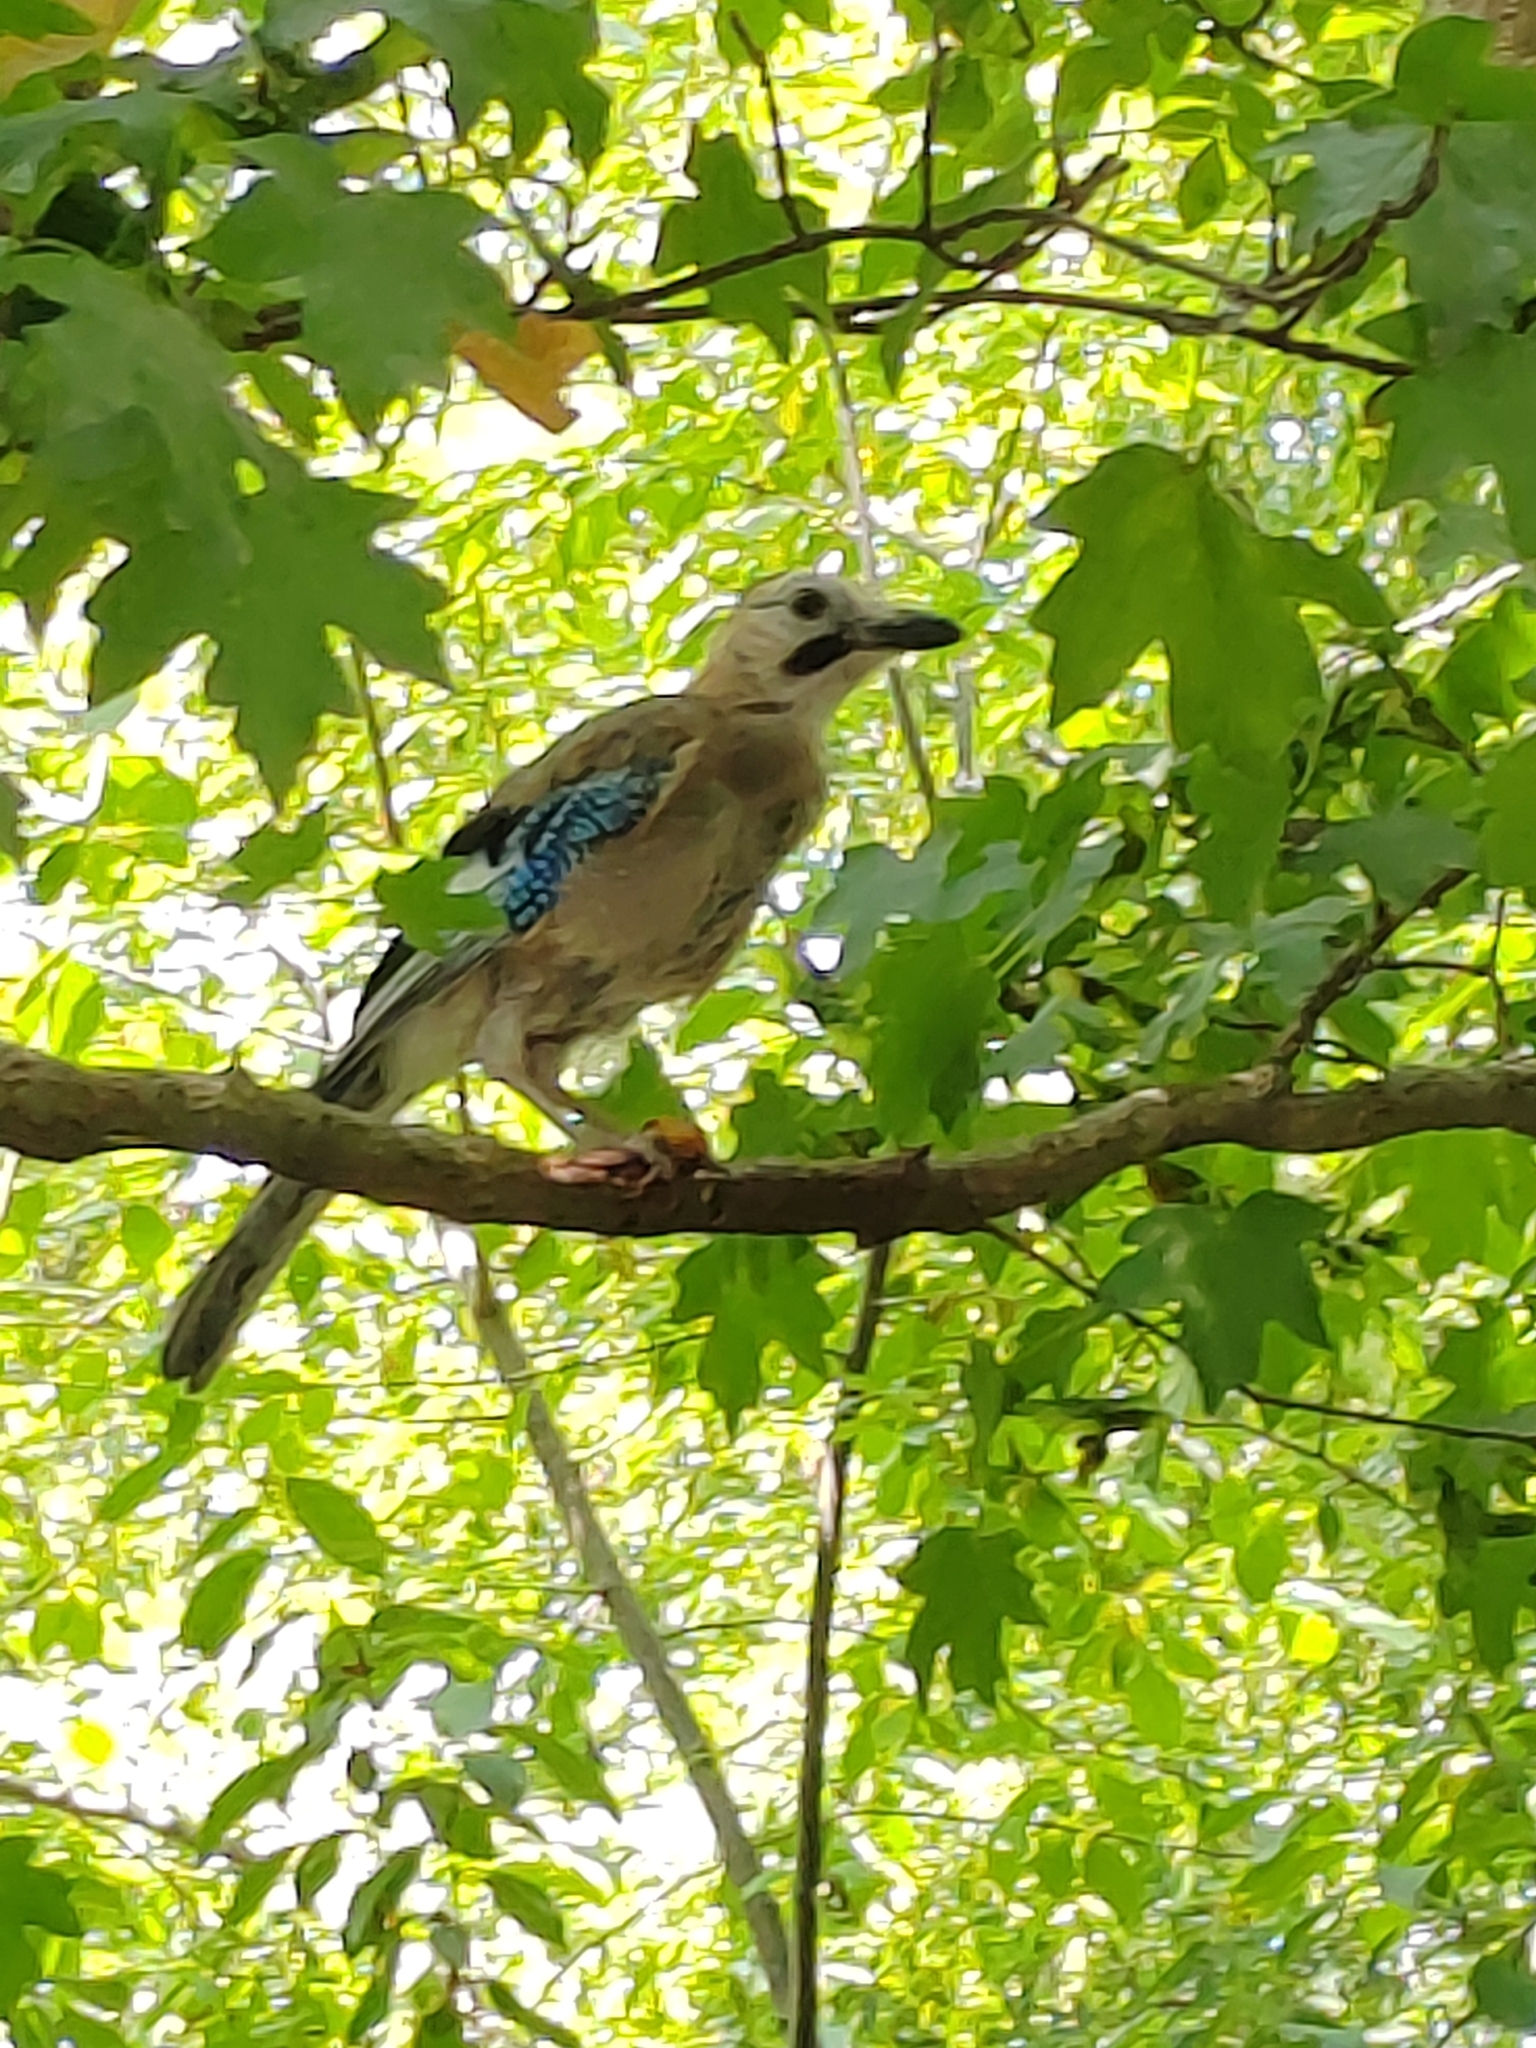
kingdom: Animalia
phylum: Chordata
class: Aves
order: Passeriformes
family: Corvidae
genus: Garrulus
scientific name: Garrulus glandarius
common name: Eurasian jay
